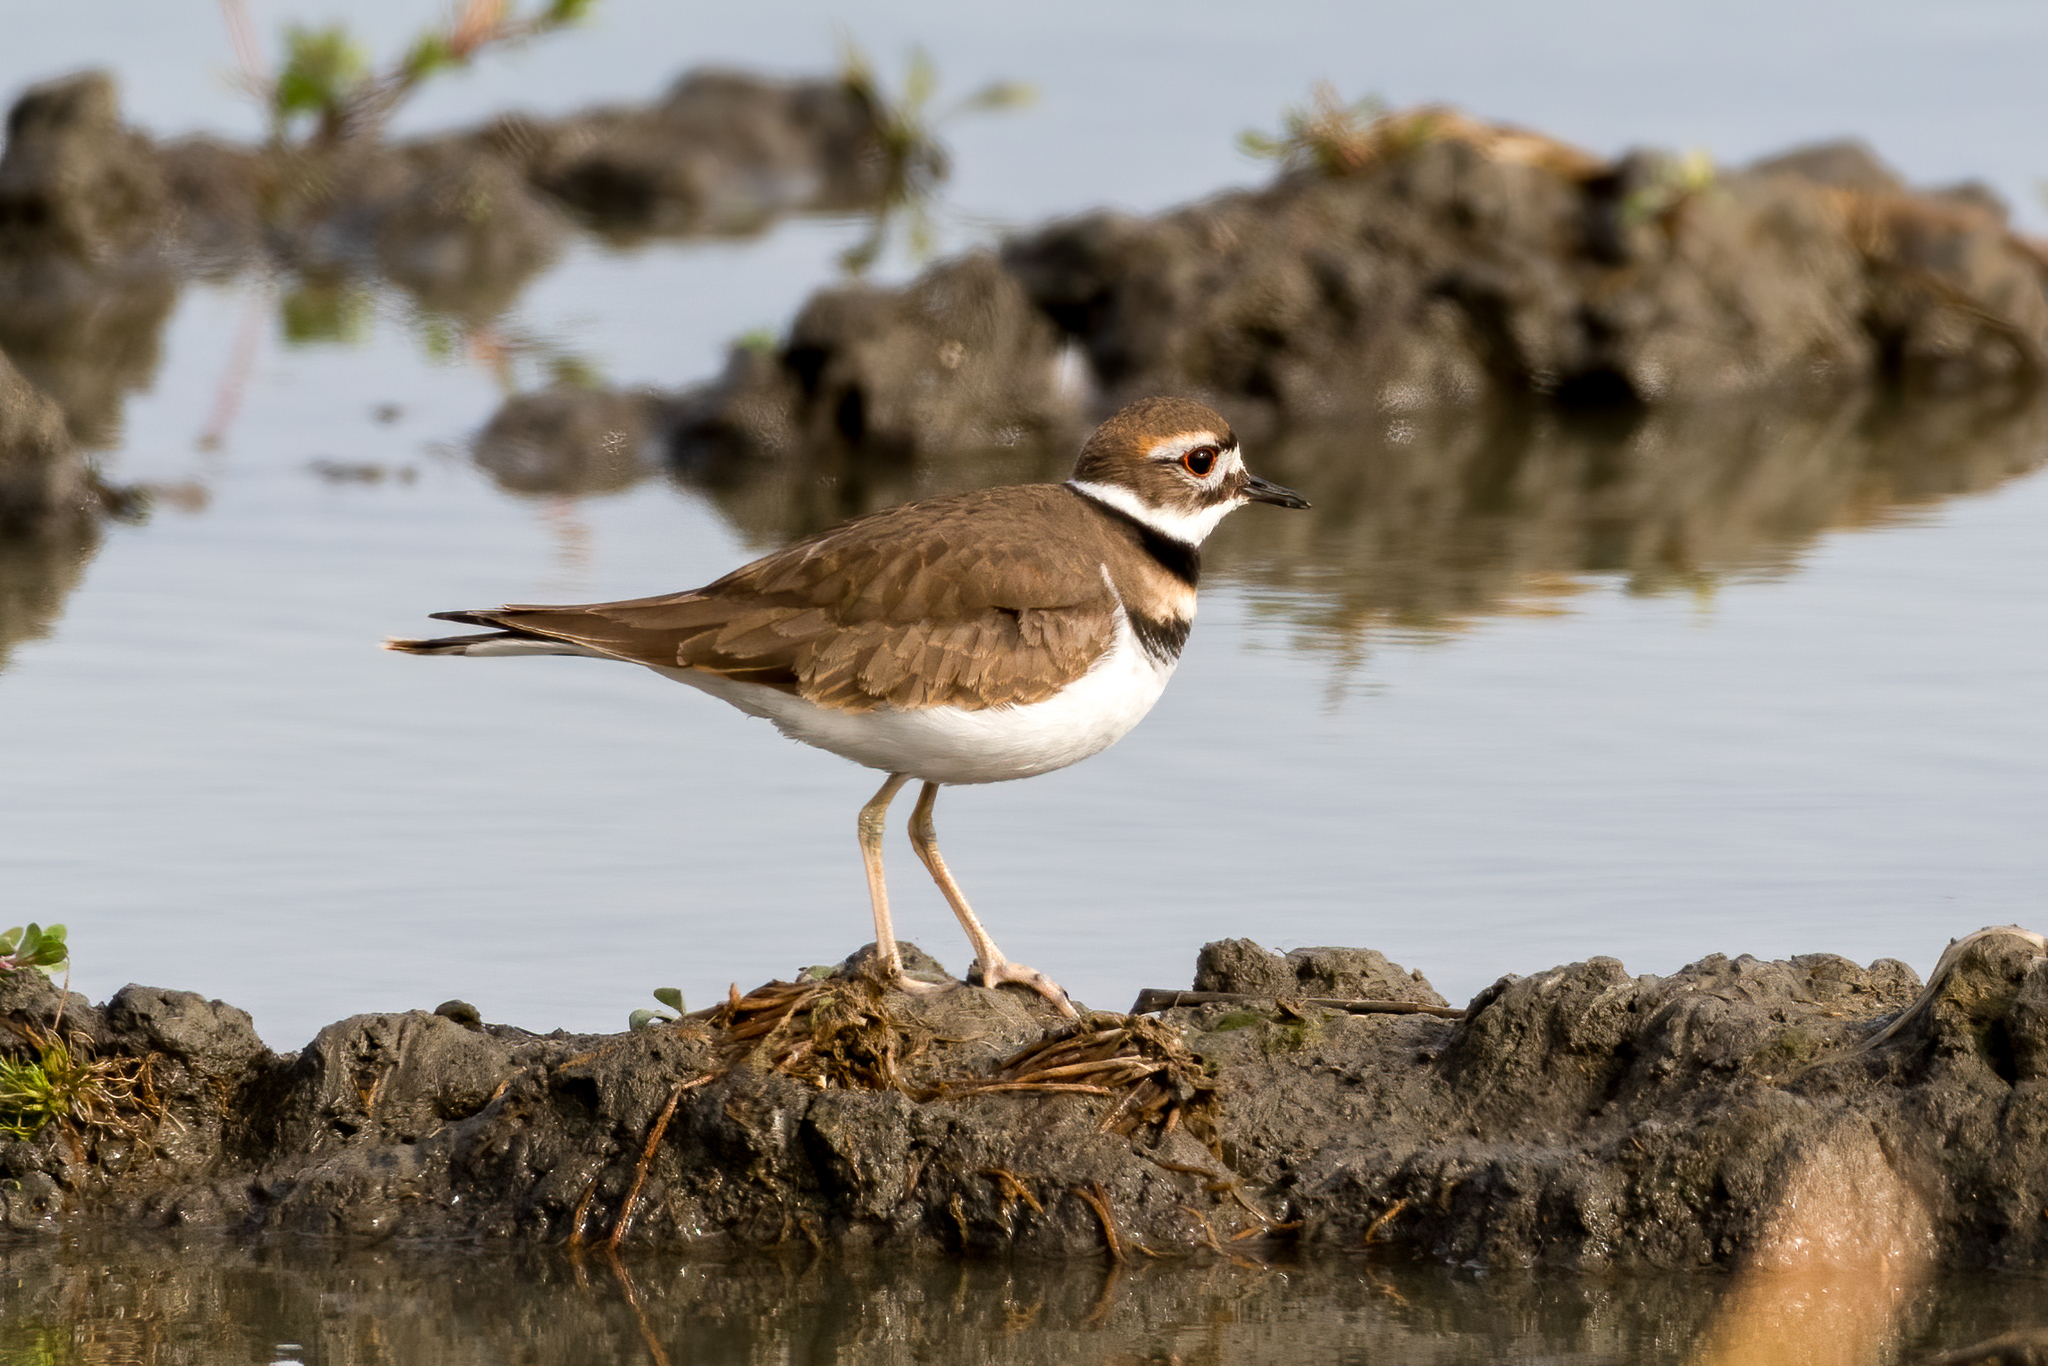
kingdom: Animalia
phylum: Chordata
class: Aves
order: Charadriiformes
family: Charadriidae
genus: Charadrius
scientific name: Charadrius vociferus
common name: Killdeer
